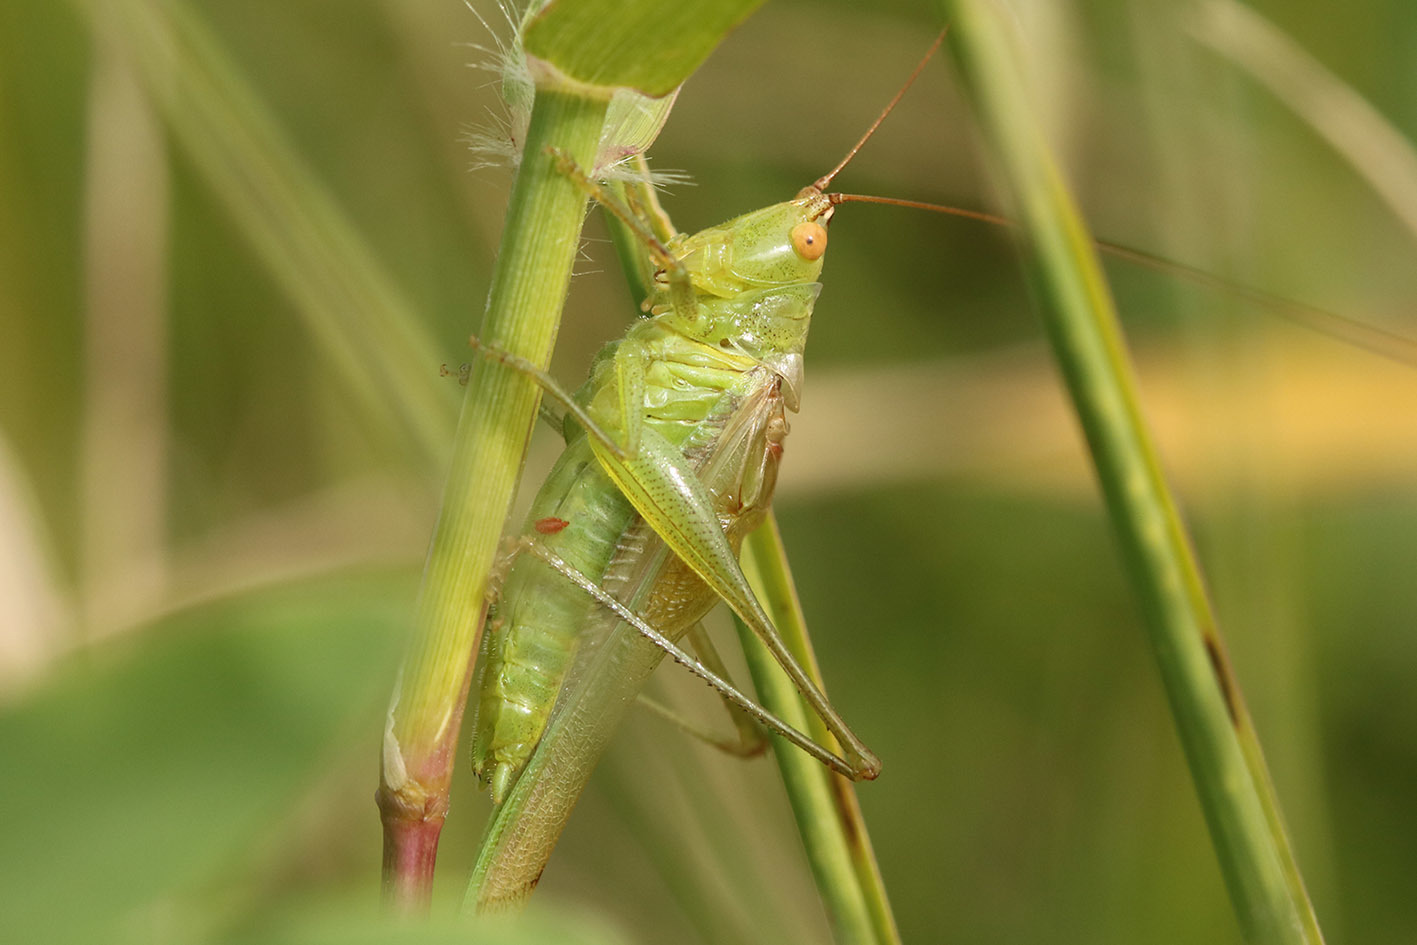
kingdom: Animalia
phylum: Arthropoda
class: Insecta
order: Orthoptera
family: Tettigoniidae
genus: Conocephalus
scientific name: Conocephalus longipes
